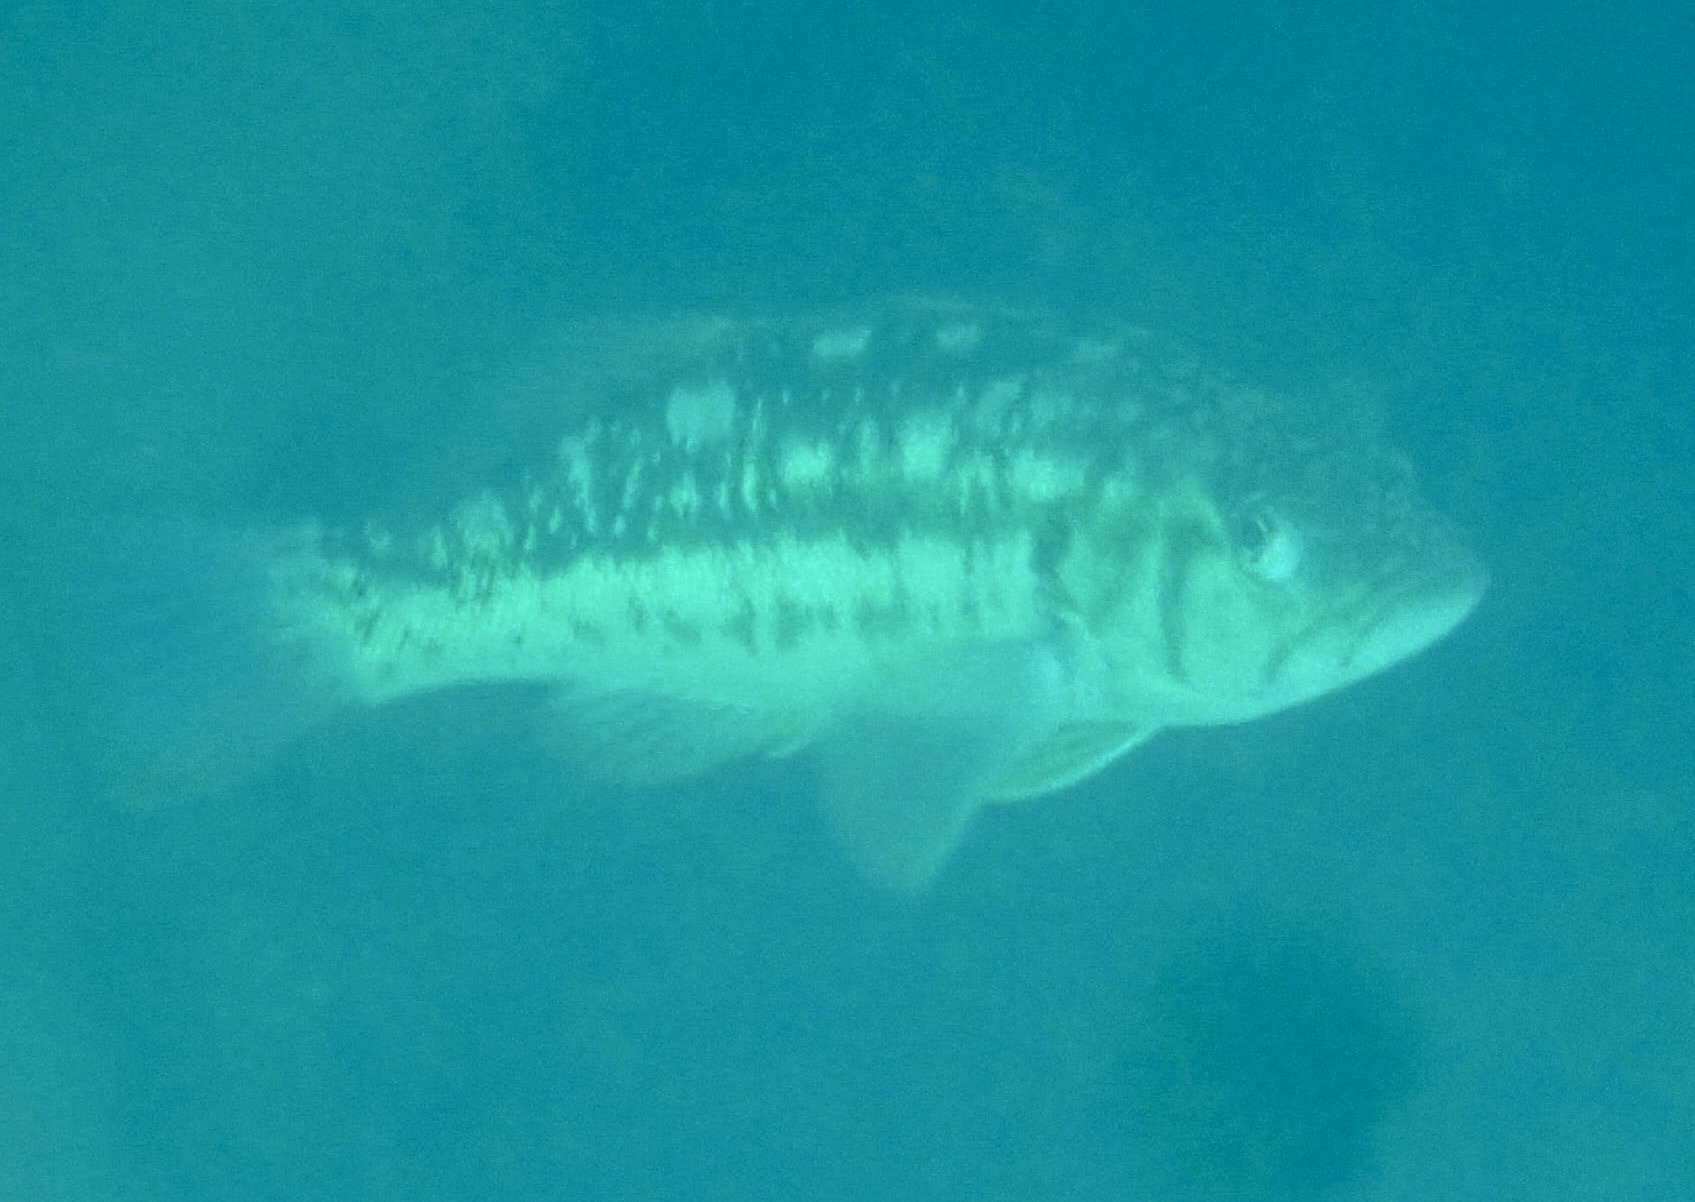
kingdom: Animalia
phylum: Chordata
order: Perciformes
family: Serranidae
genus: Paralabrax
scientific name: Paralabrax clathratus
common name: Kelp bass
